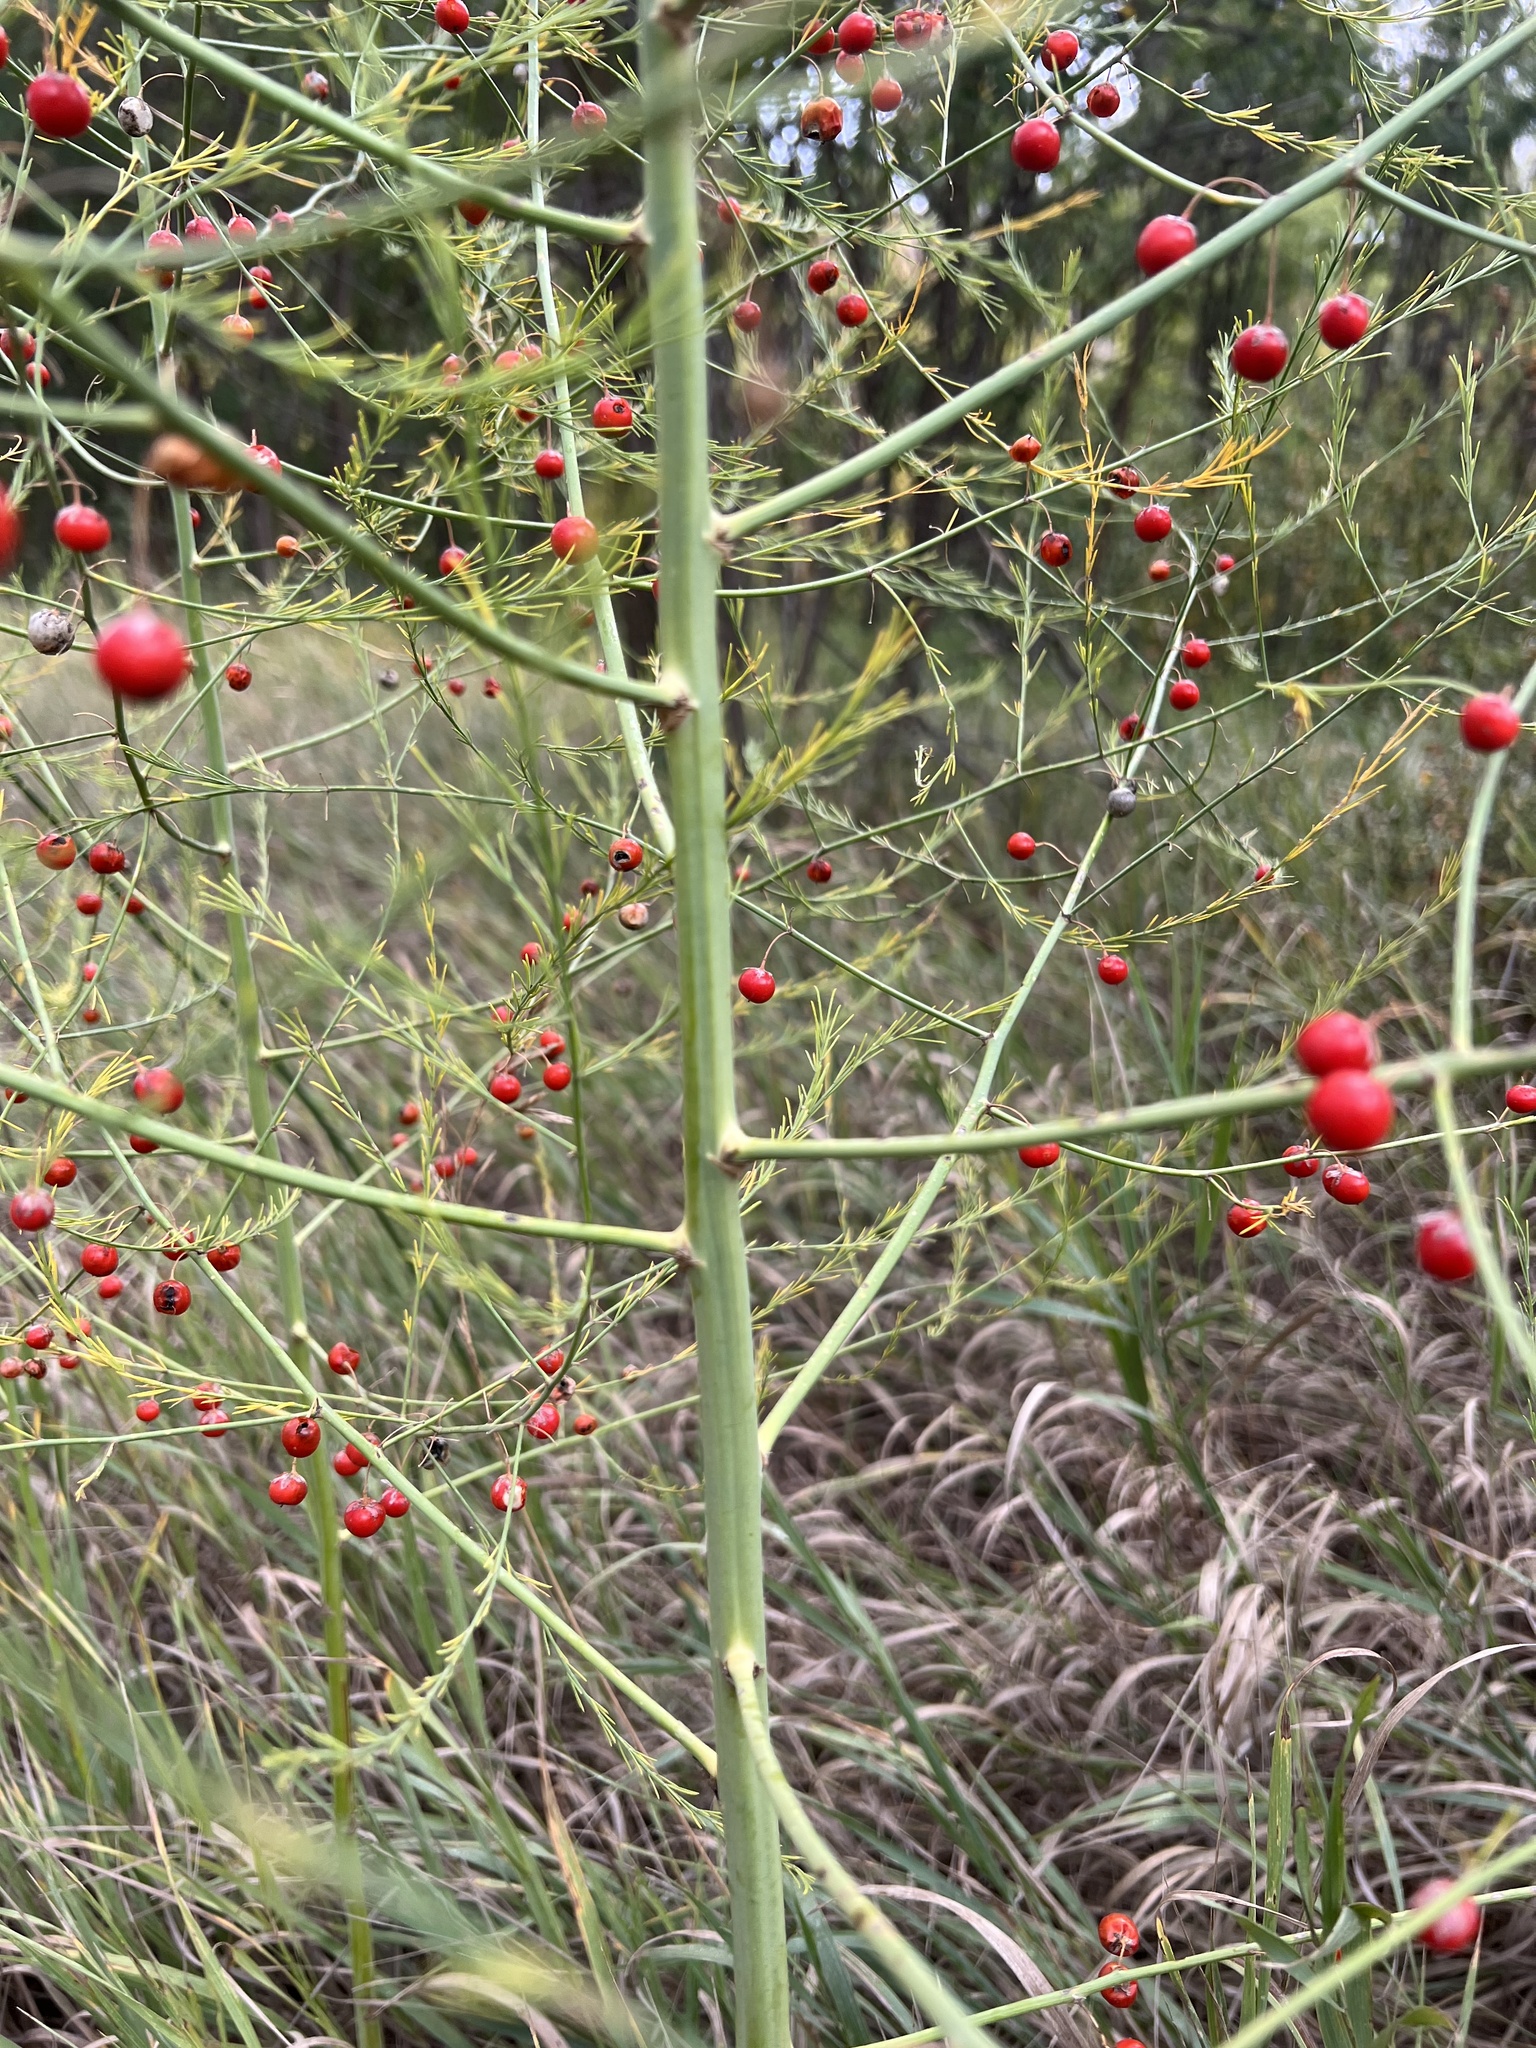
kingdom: Plantae
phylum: Tracheophyta
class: Liliopsida
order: Asparagales
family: Asparagaceae
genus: Asparagus
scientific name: Asparagus officinalis
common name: Garden asparagus
